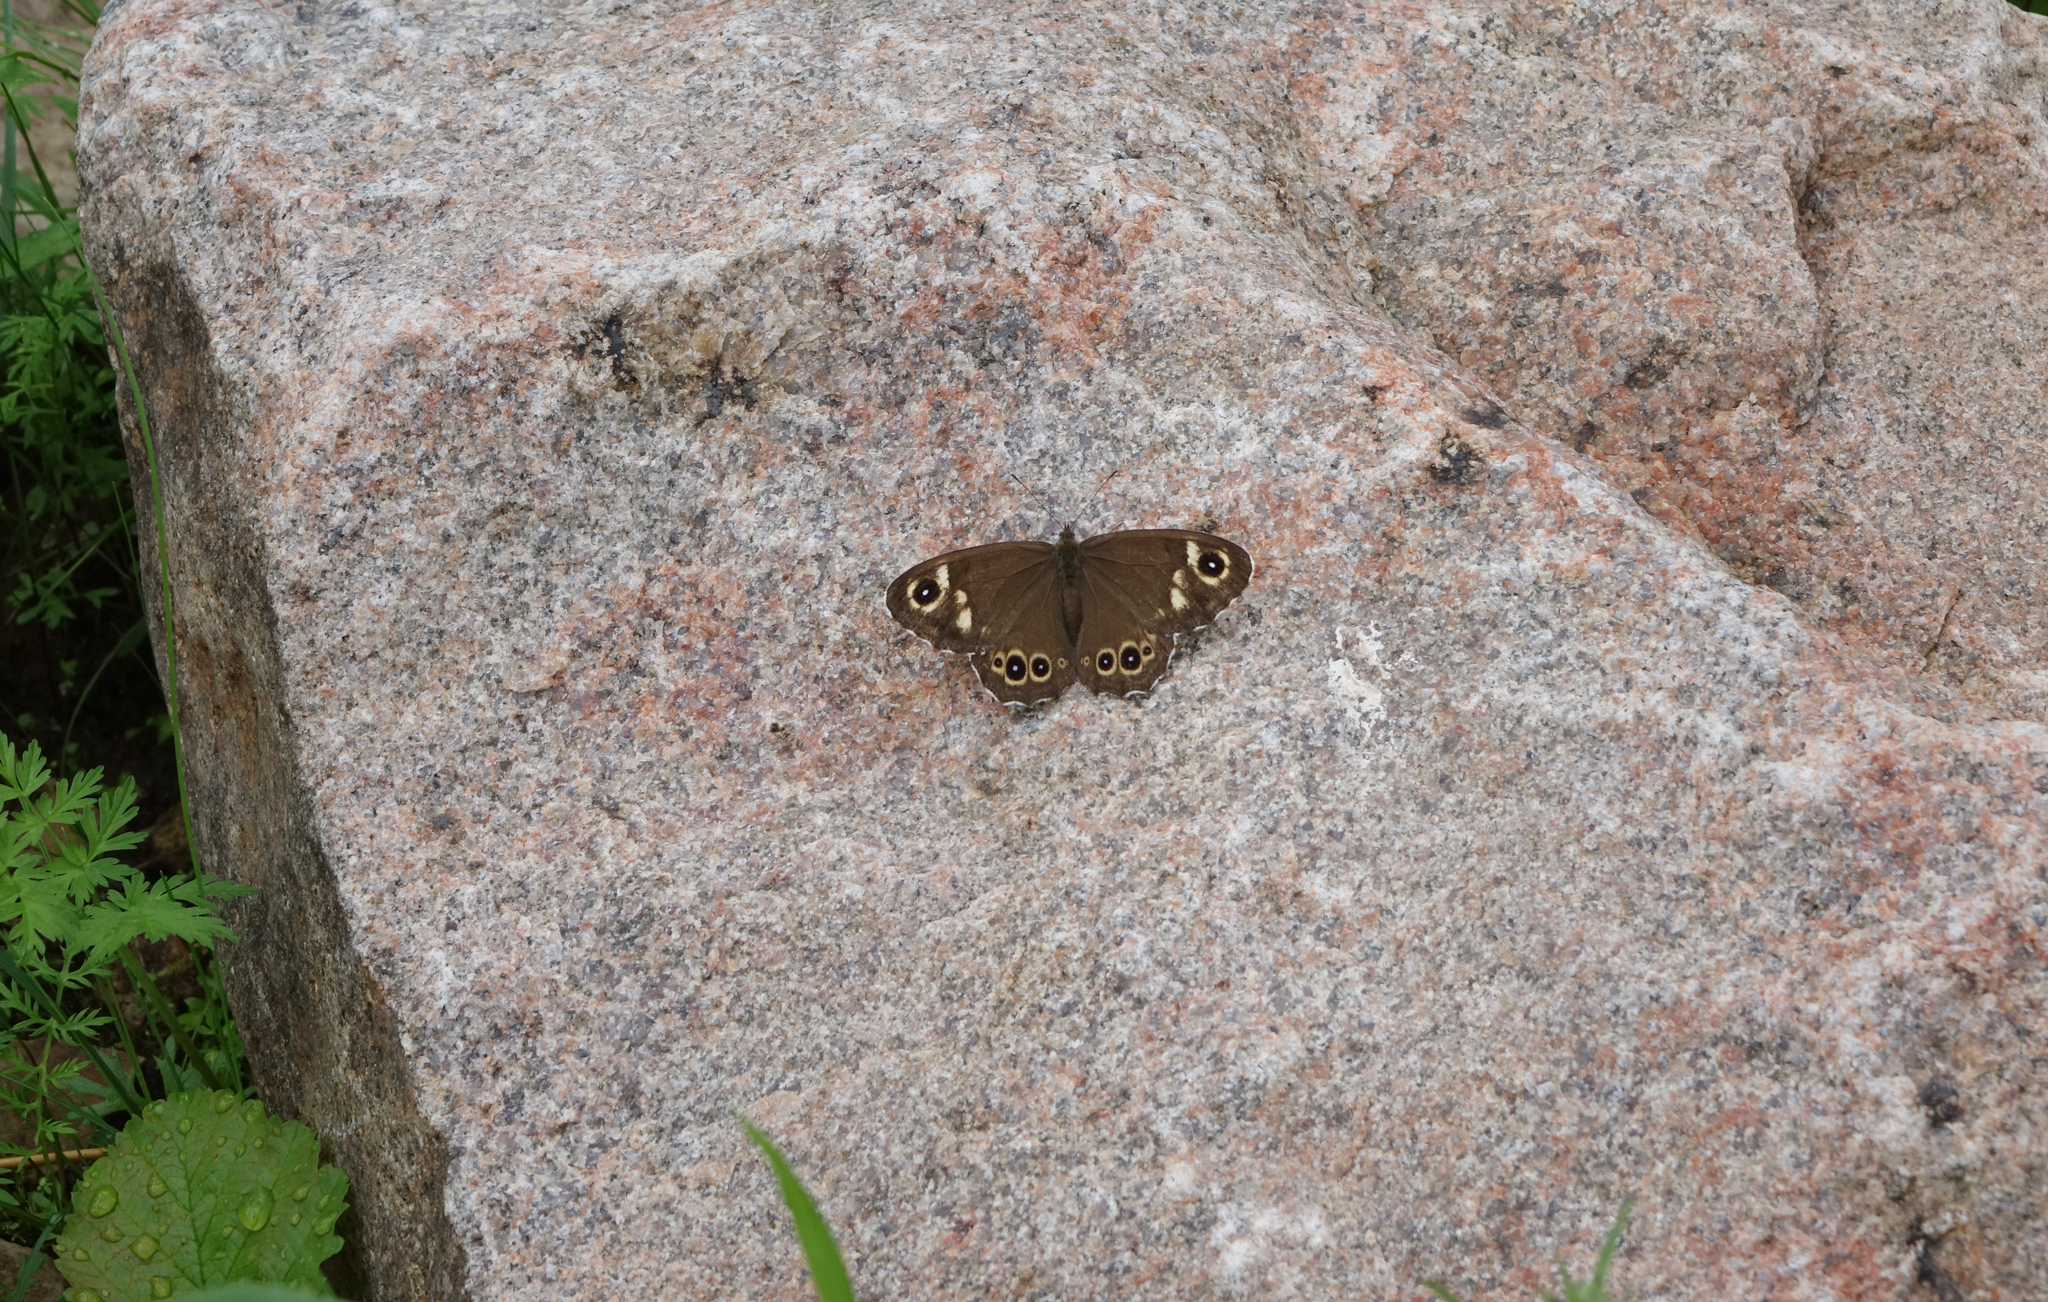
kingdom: Animalia
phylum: Arthropoda
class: Insecta
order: Lepidoptera
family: Nymphalidae
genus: Pararge
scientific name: Pararge Lasiommata deidamia
